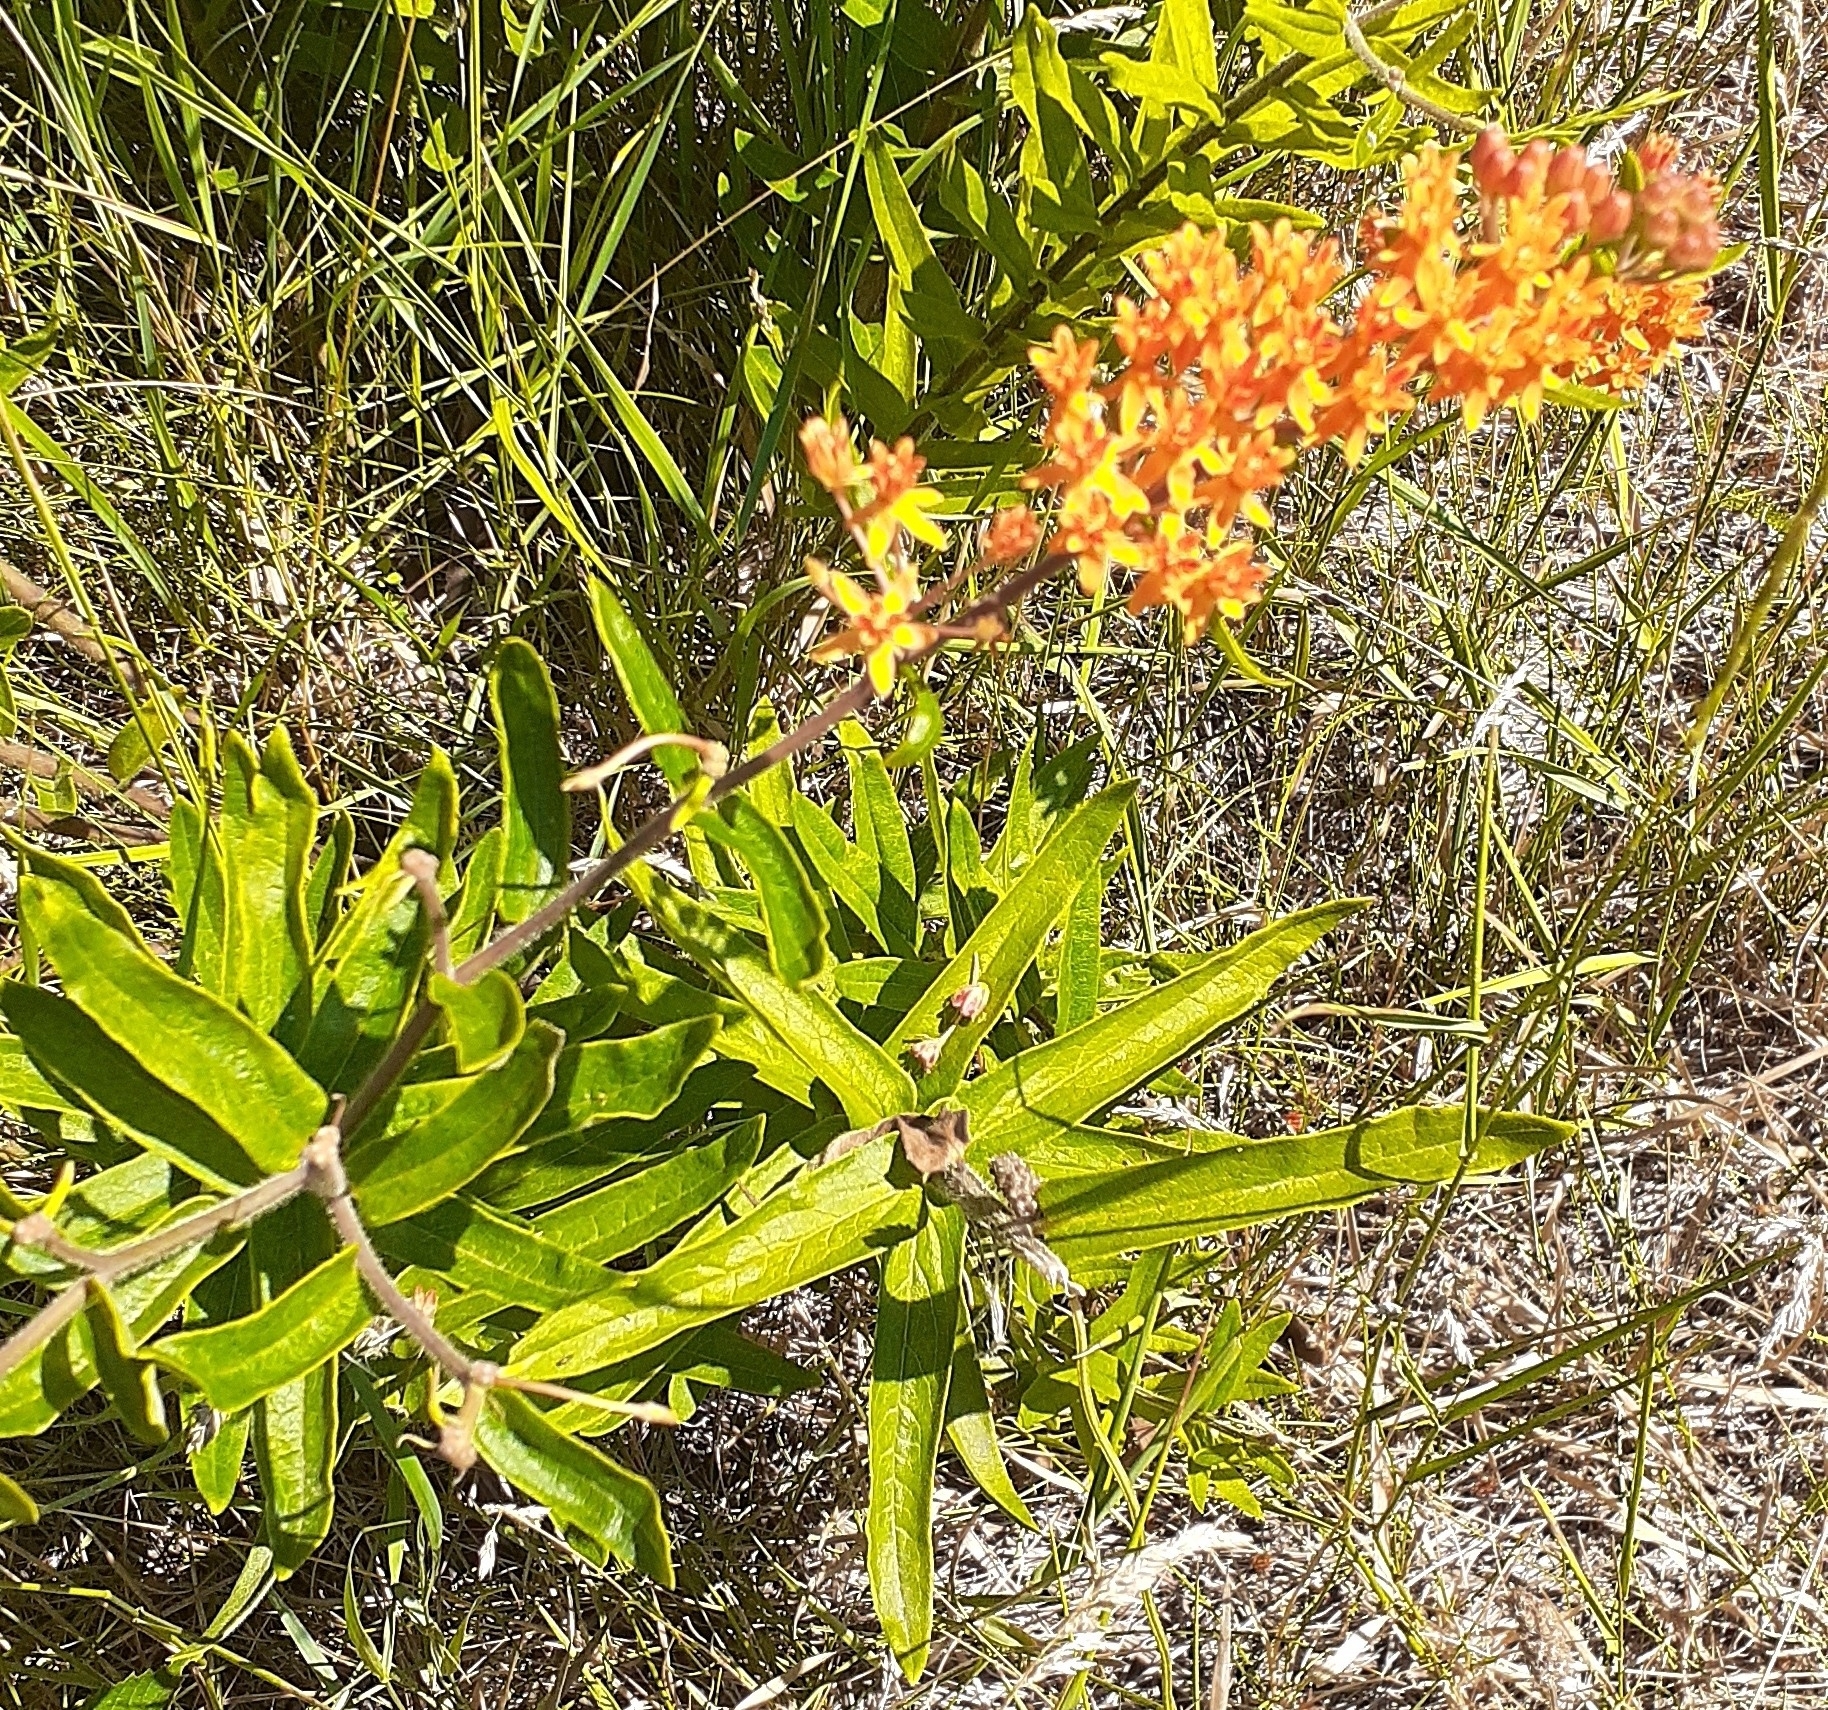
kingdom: Plantae
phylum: Tracheophyta
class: Magnoliopsida
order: Gentianales
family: Apocynaceae
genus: Asclepias
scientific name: Asclepias tuberosa
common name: Butterfly milkweed
